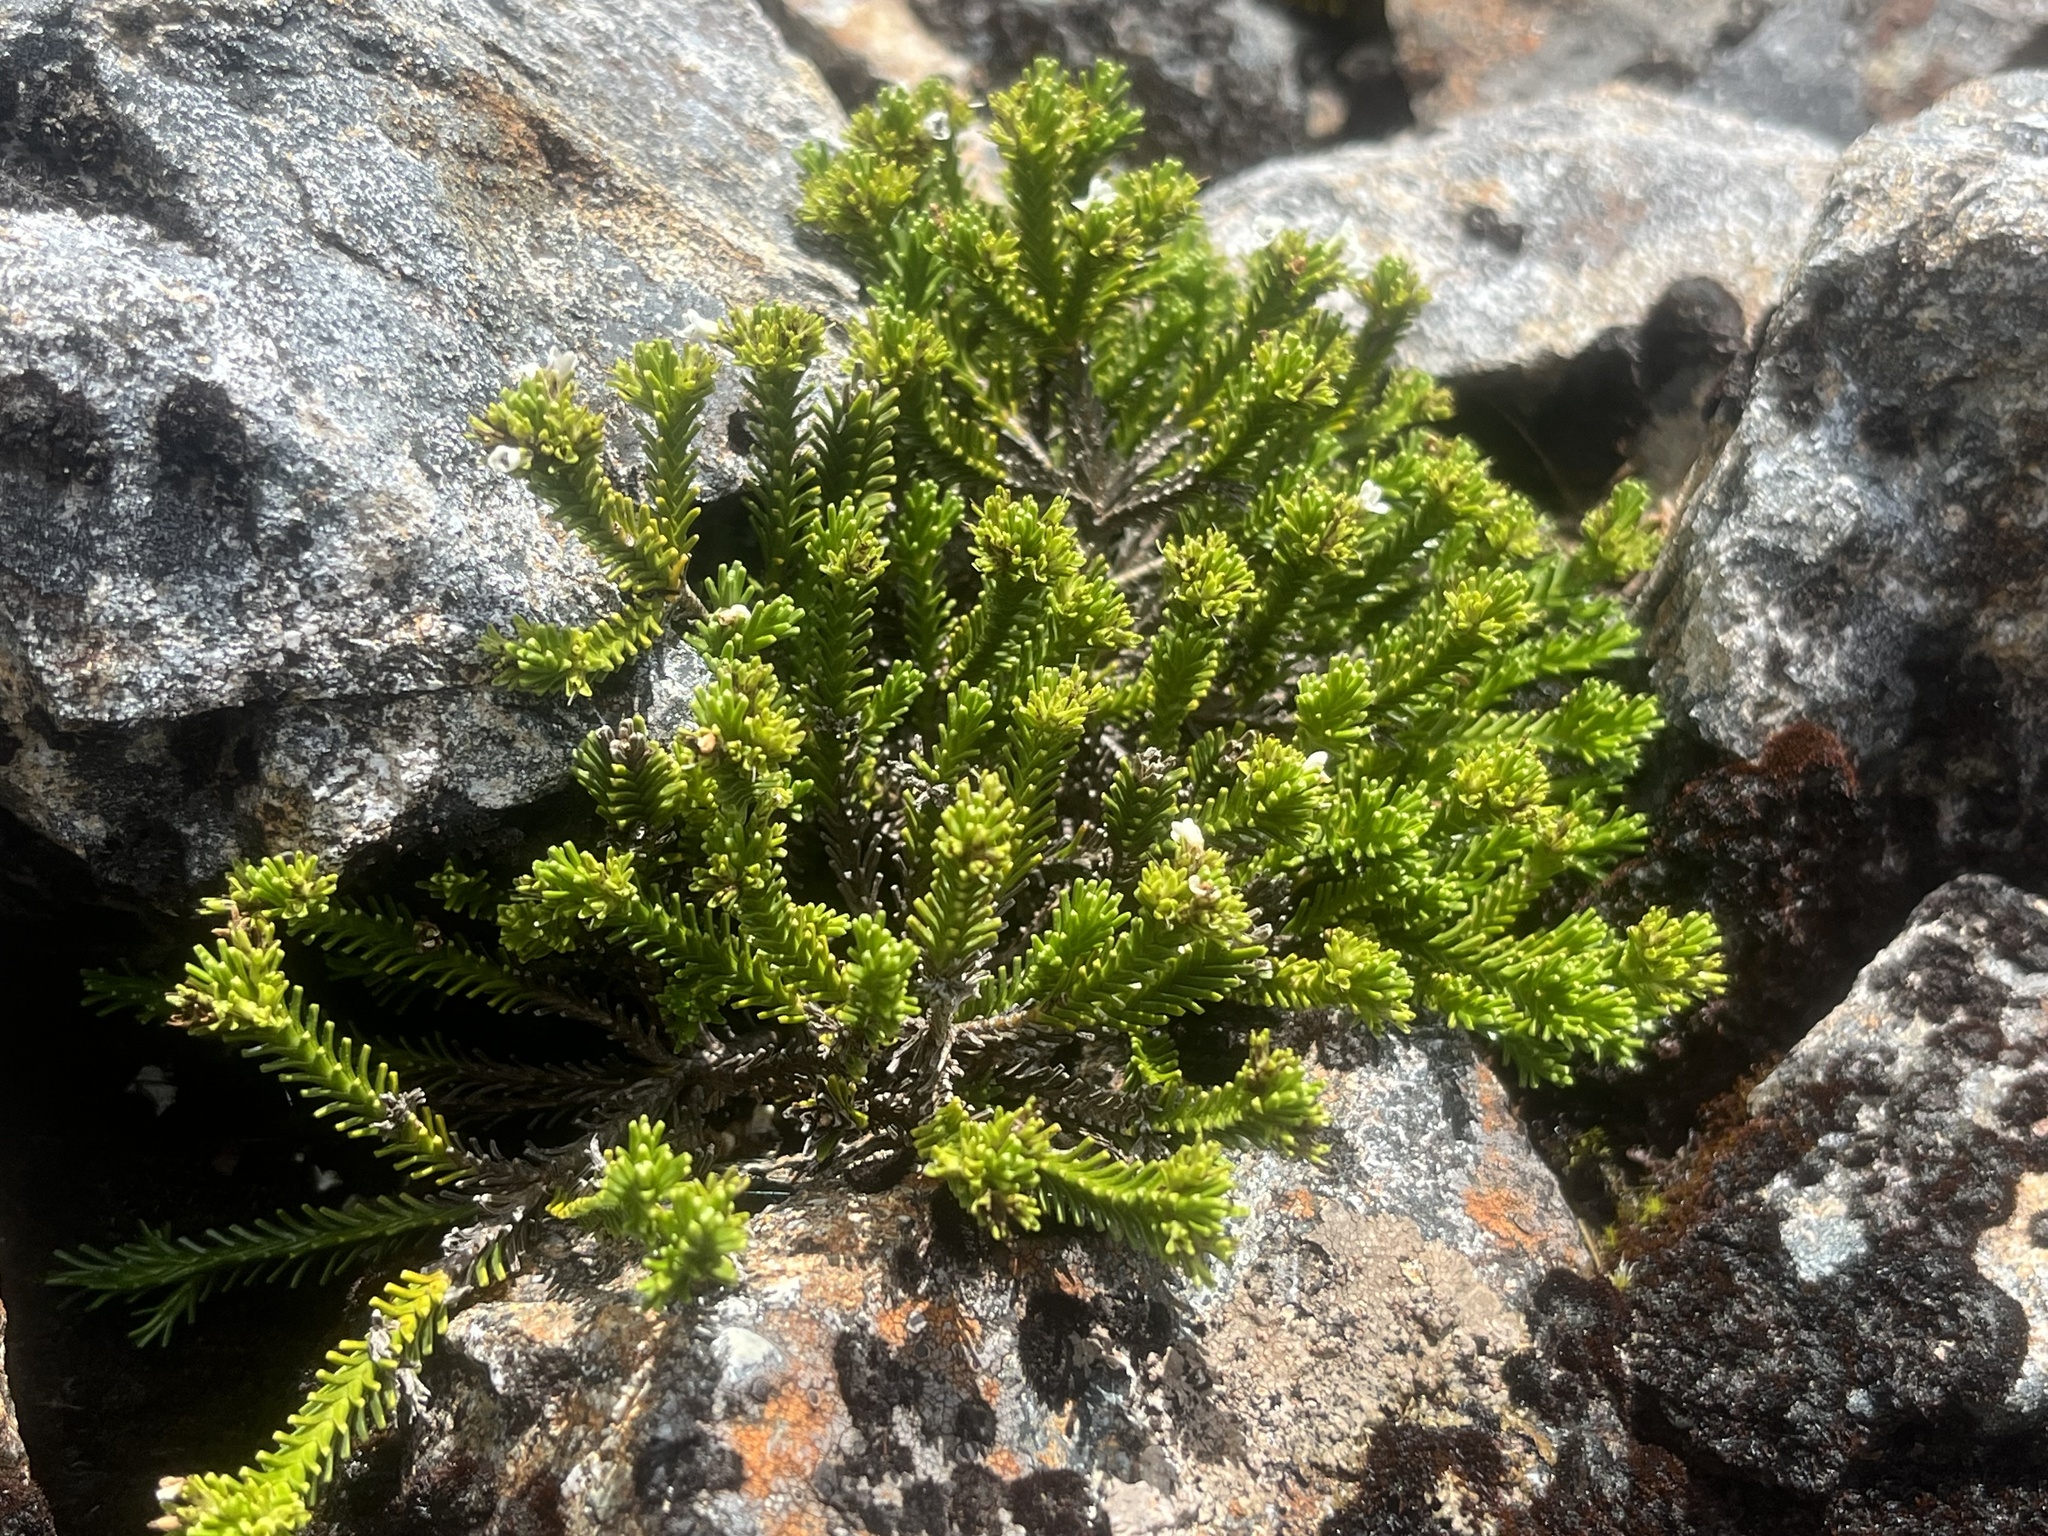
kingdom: Plantae
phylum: Tracheophyta
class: Magnoliopsida
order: Lamiales
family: Plantaginaceae
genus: Veronica
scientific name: Veronica hookeri
